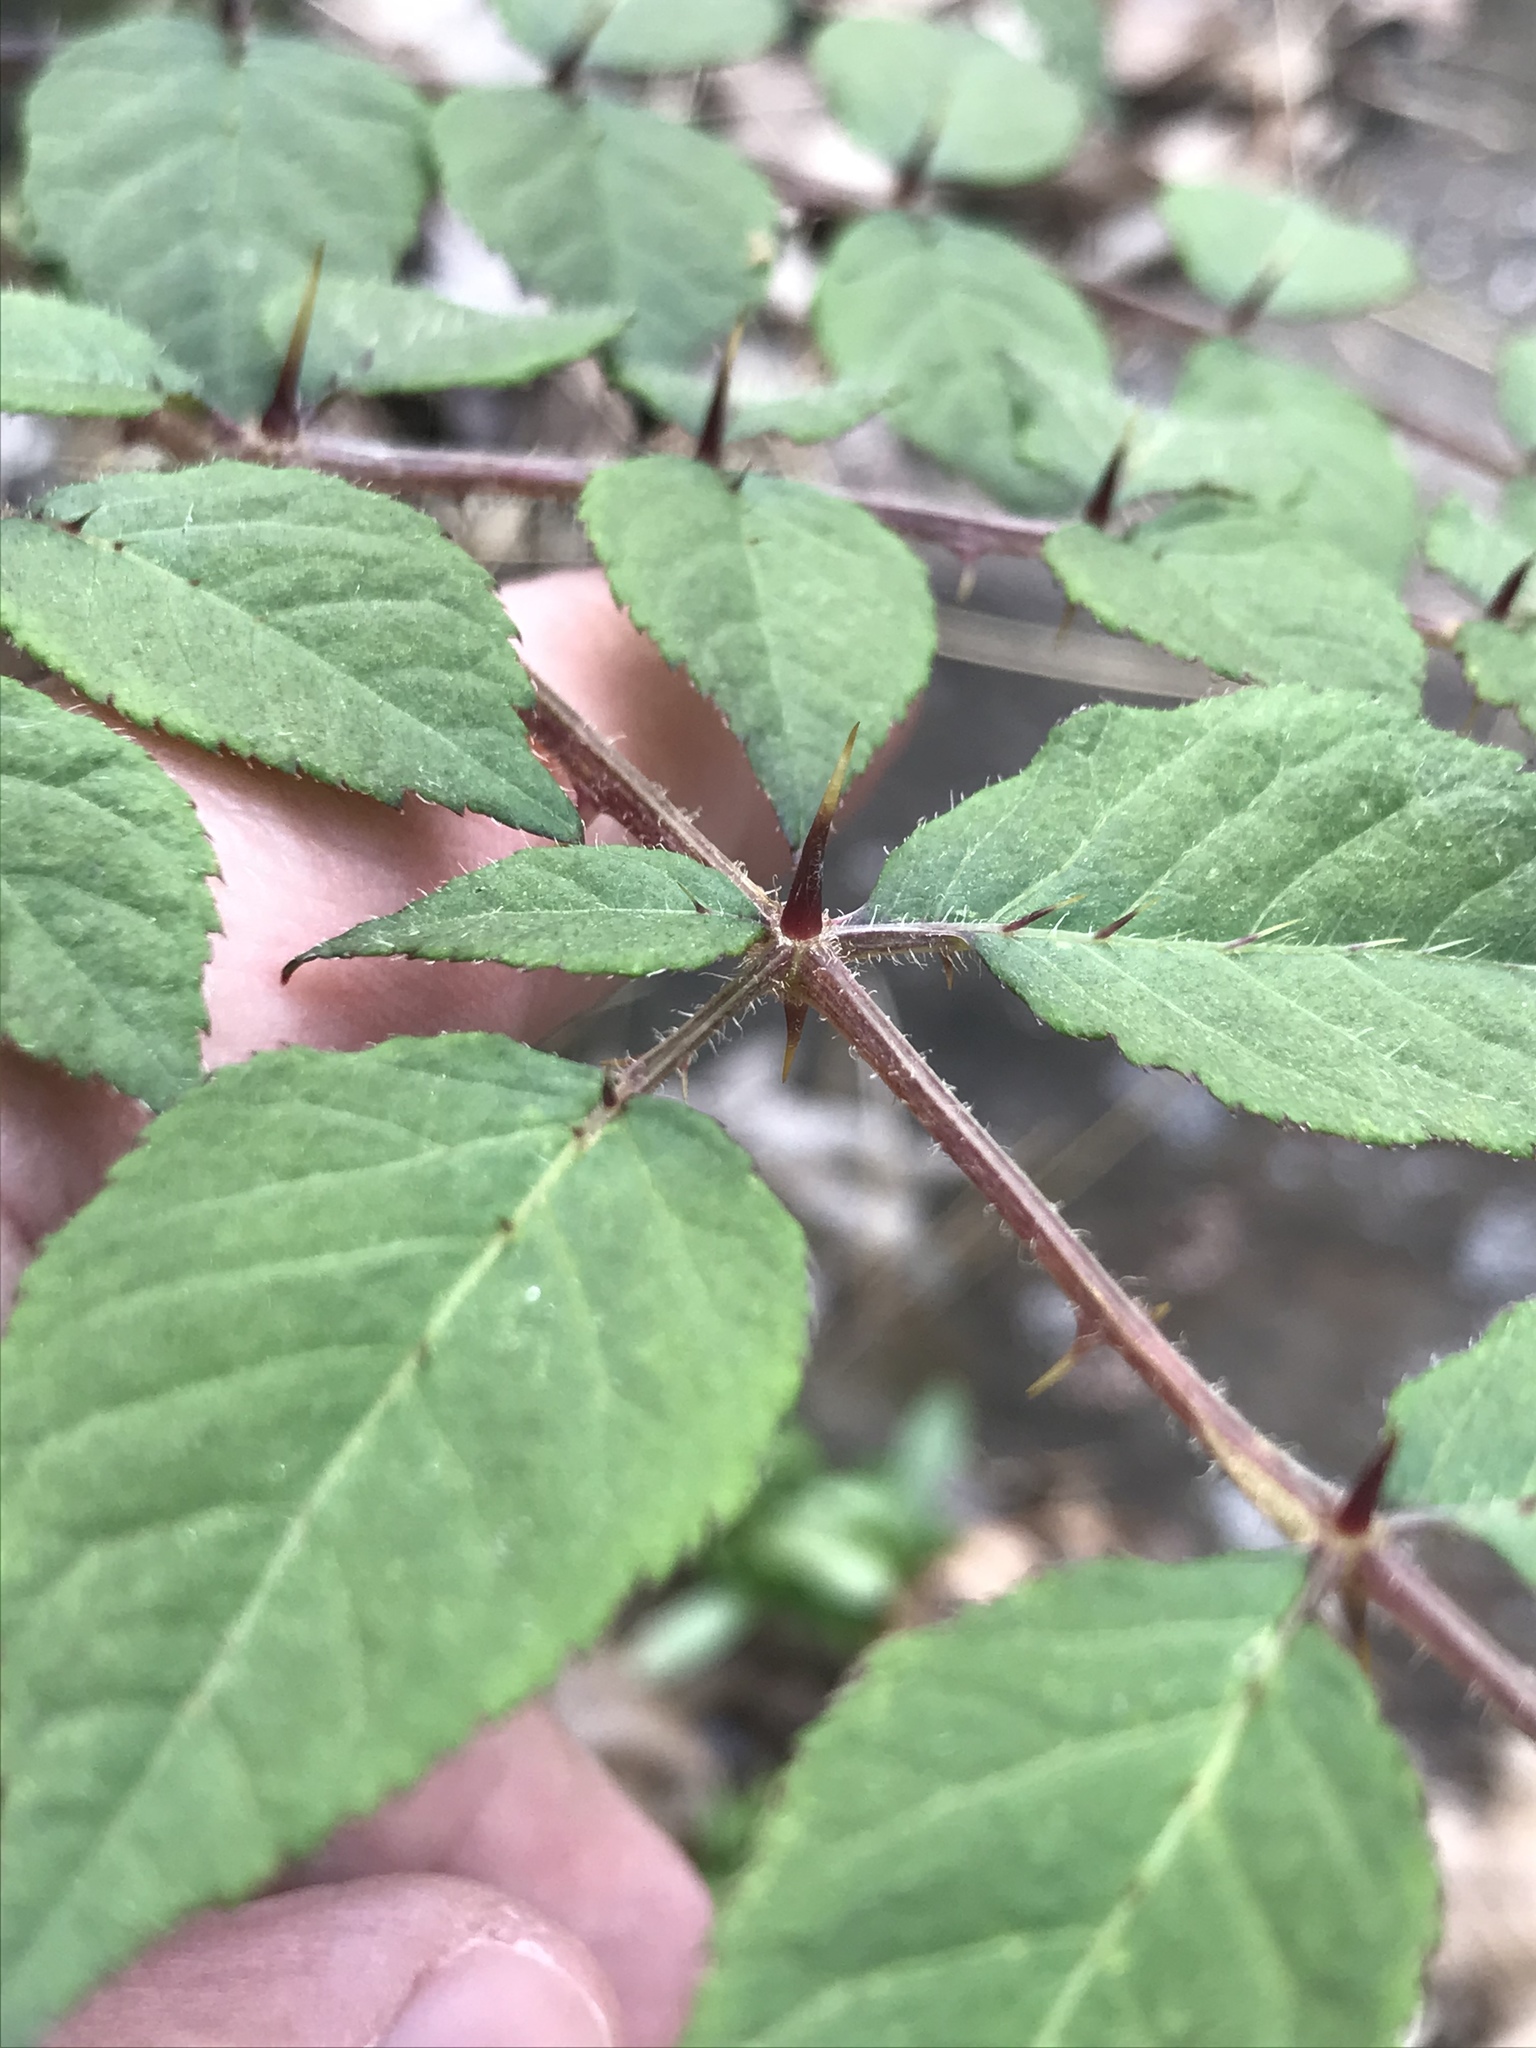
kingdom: Plantae
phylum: Tracheophyta
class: Magnoliopsida
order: Apiales
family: Araliaceae
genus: Aralia
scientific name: Aralia elata
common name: Japanese angelica-tree
